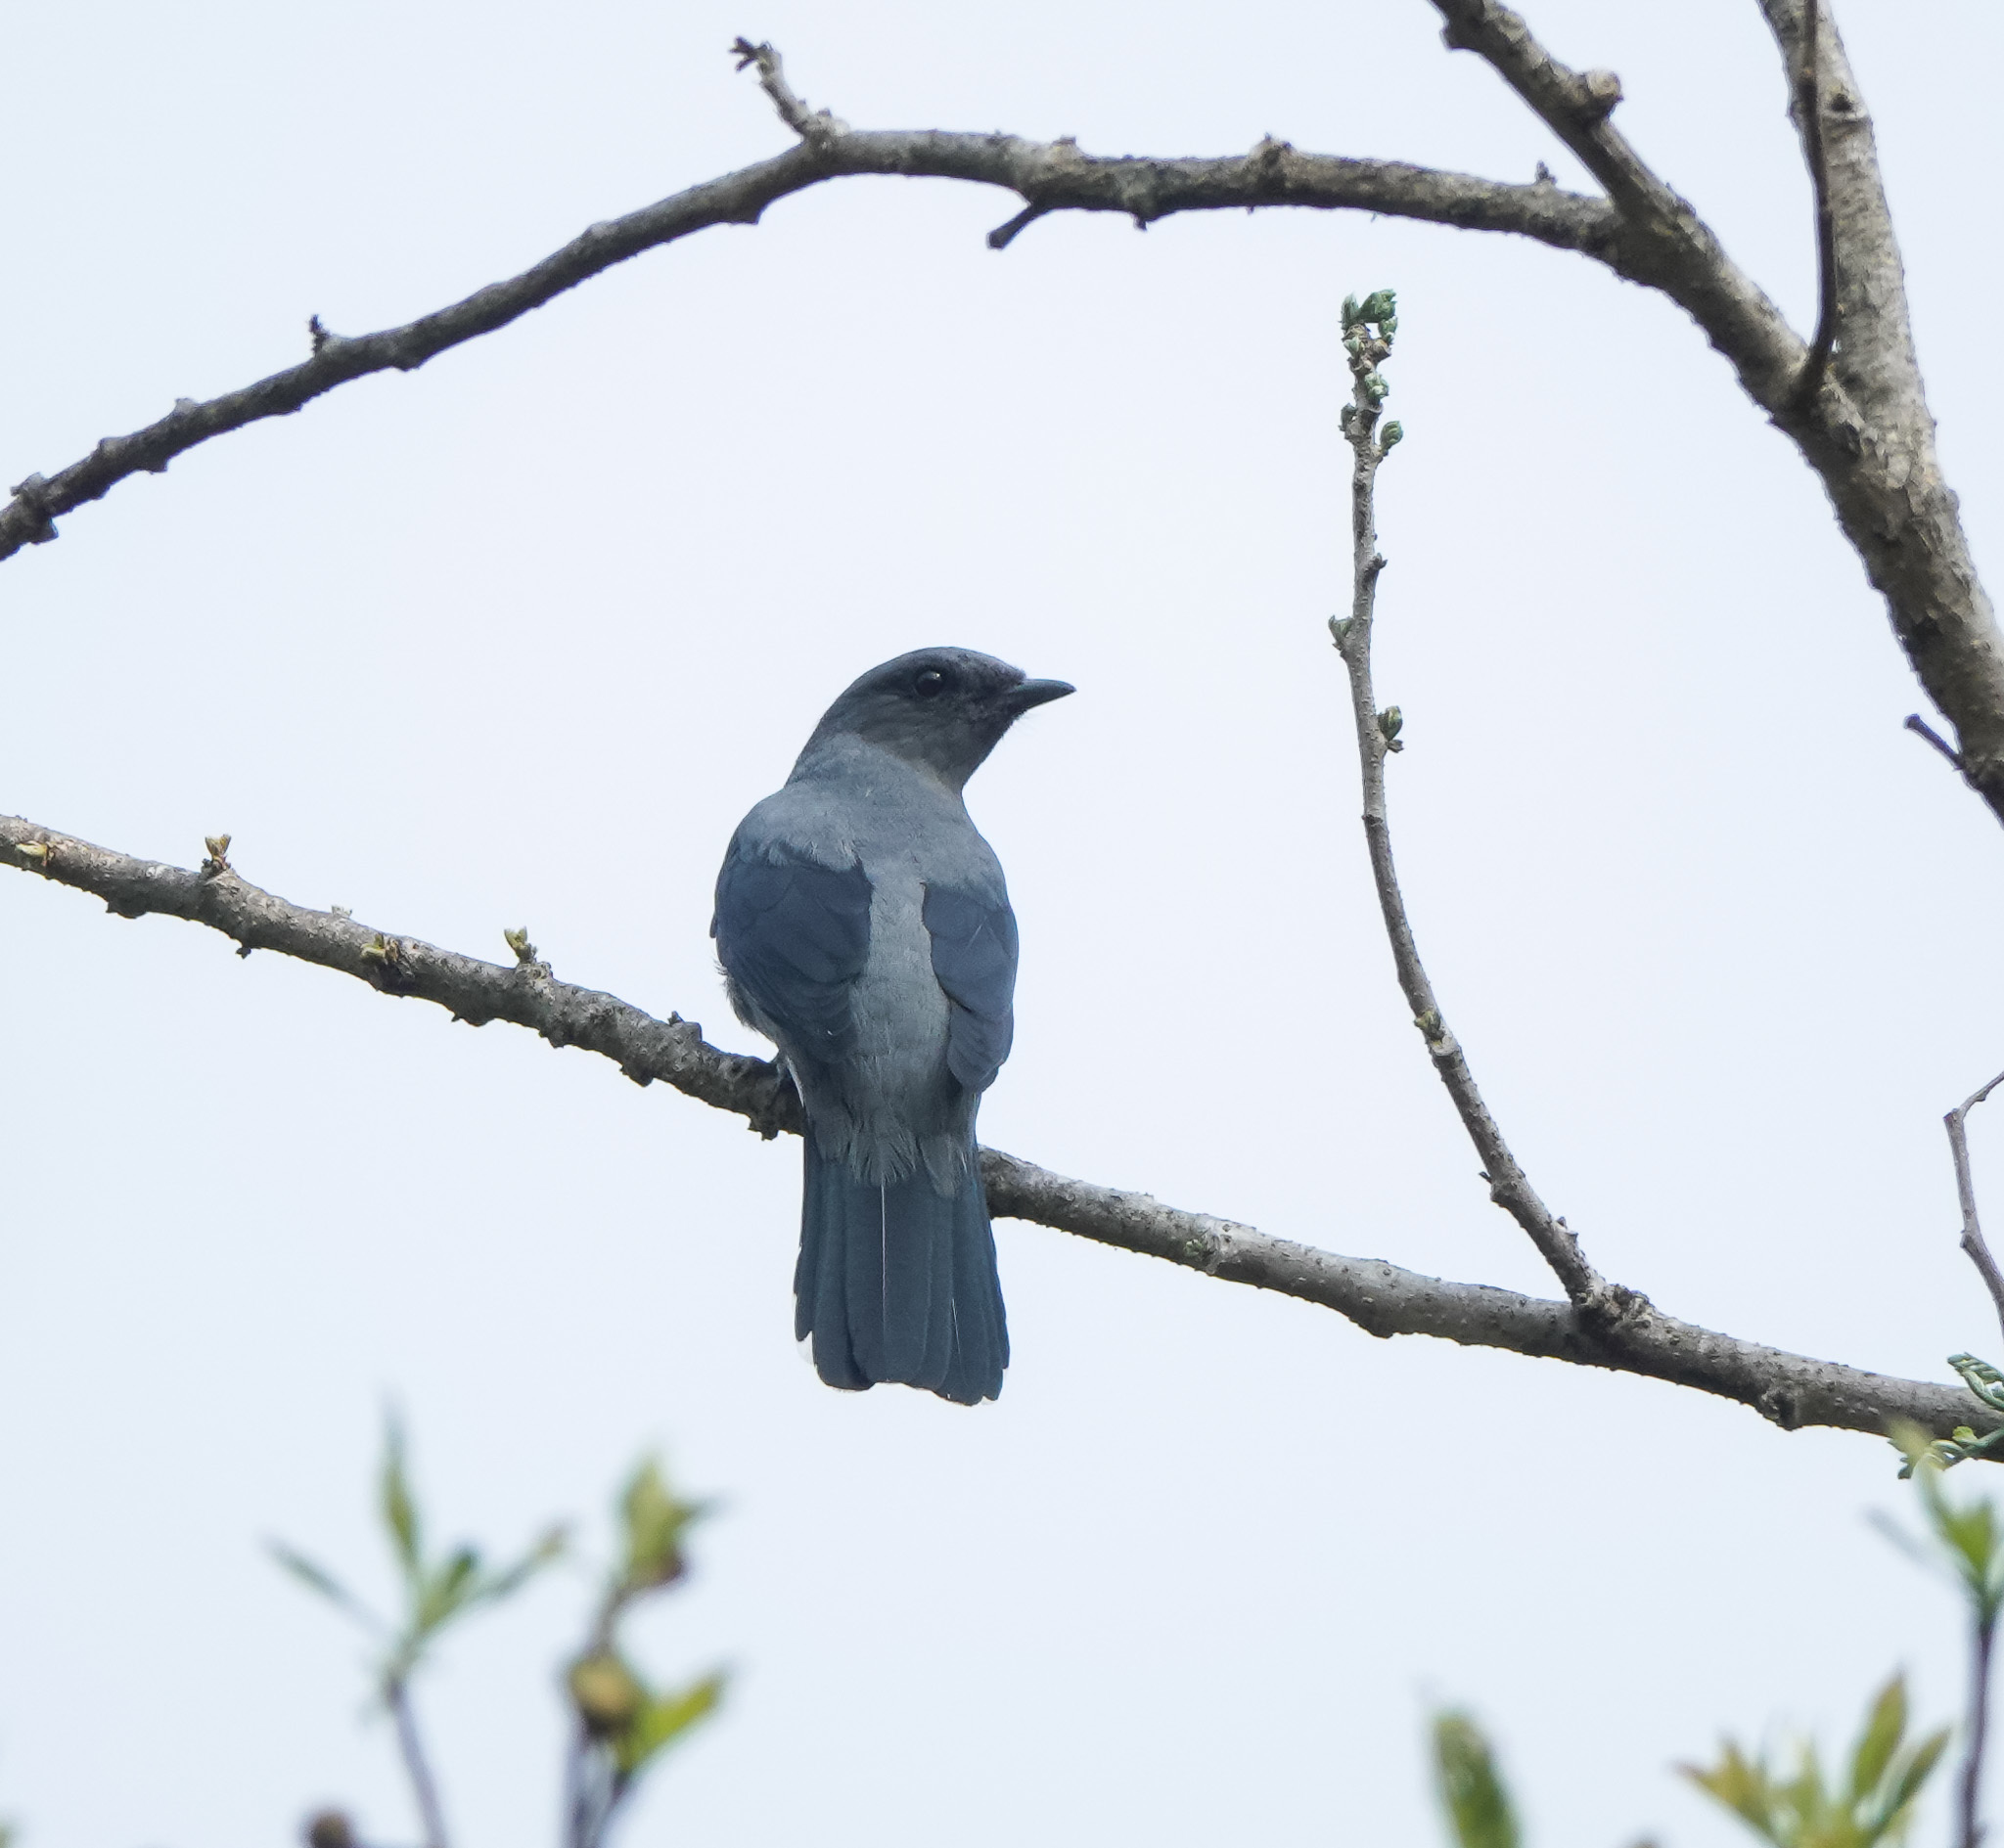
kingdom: Animalia
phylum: Chordata
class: Aves
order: Passeriformes
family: Campephagidae
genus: Coracina
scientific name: Coracina melaschistos
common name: Black-winged cuckooshrike
